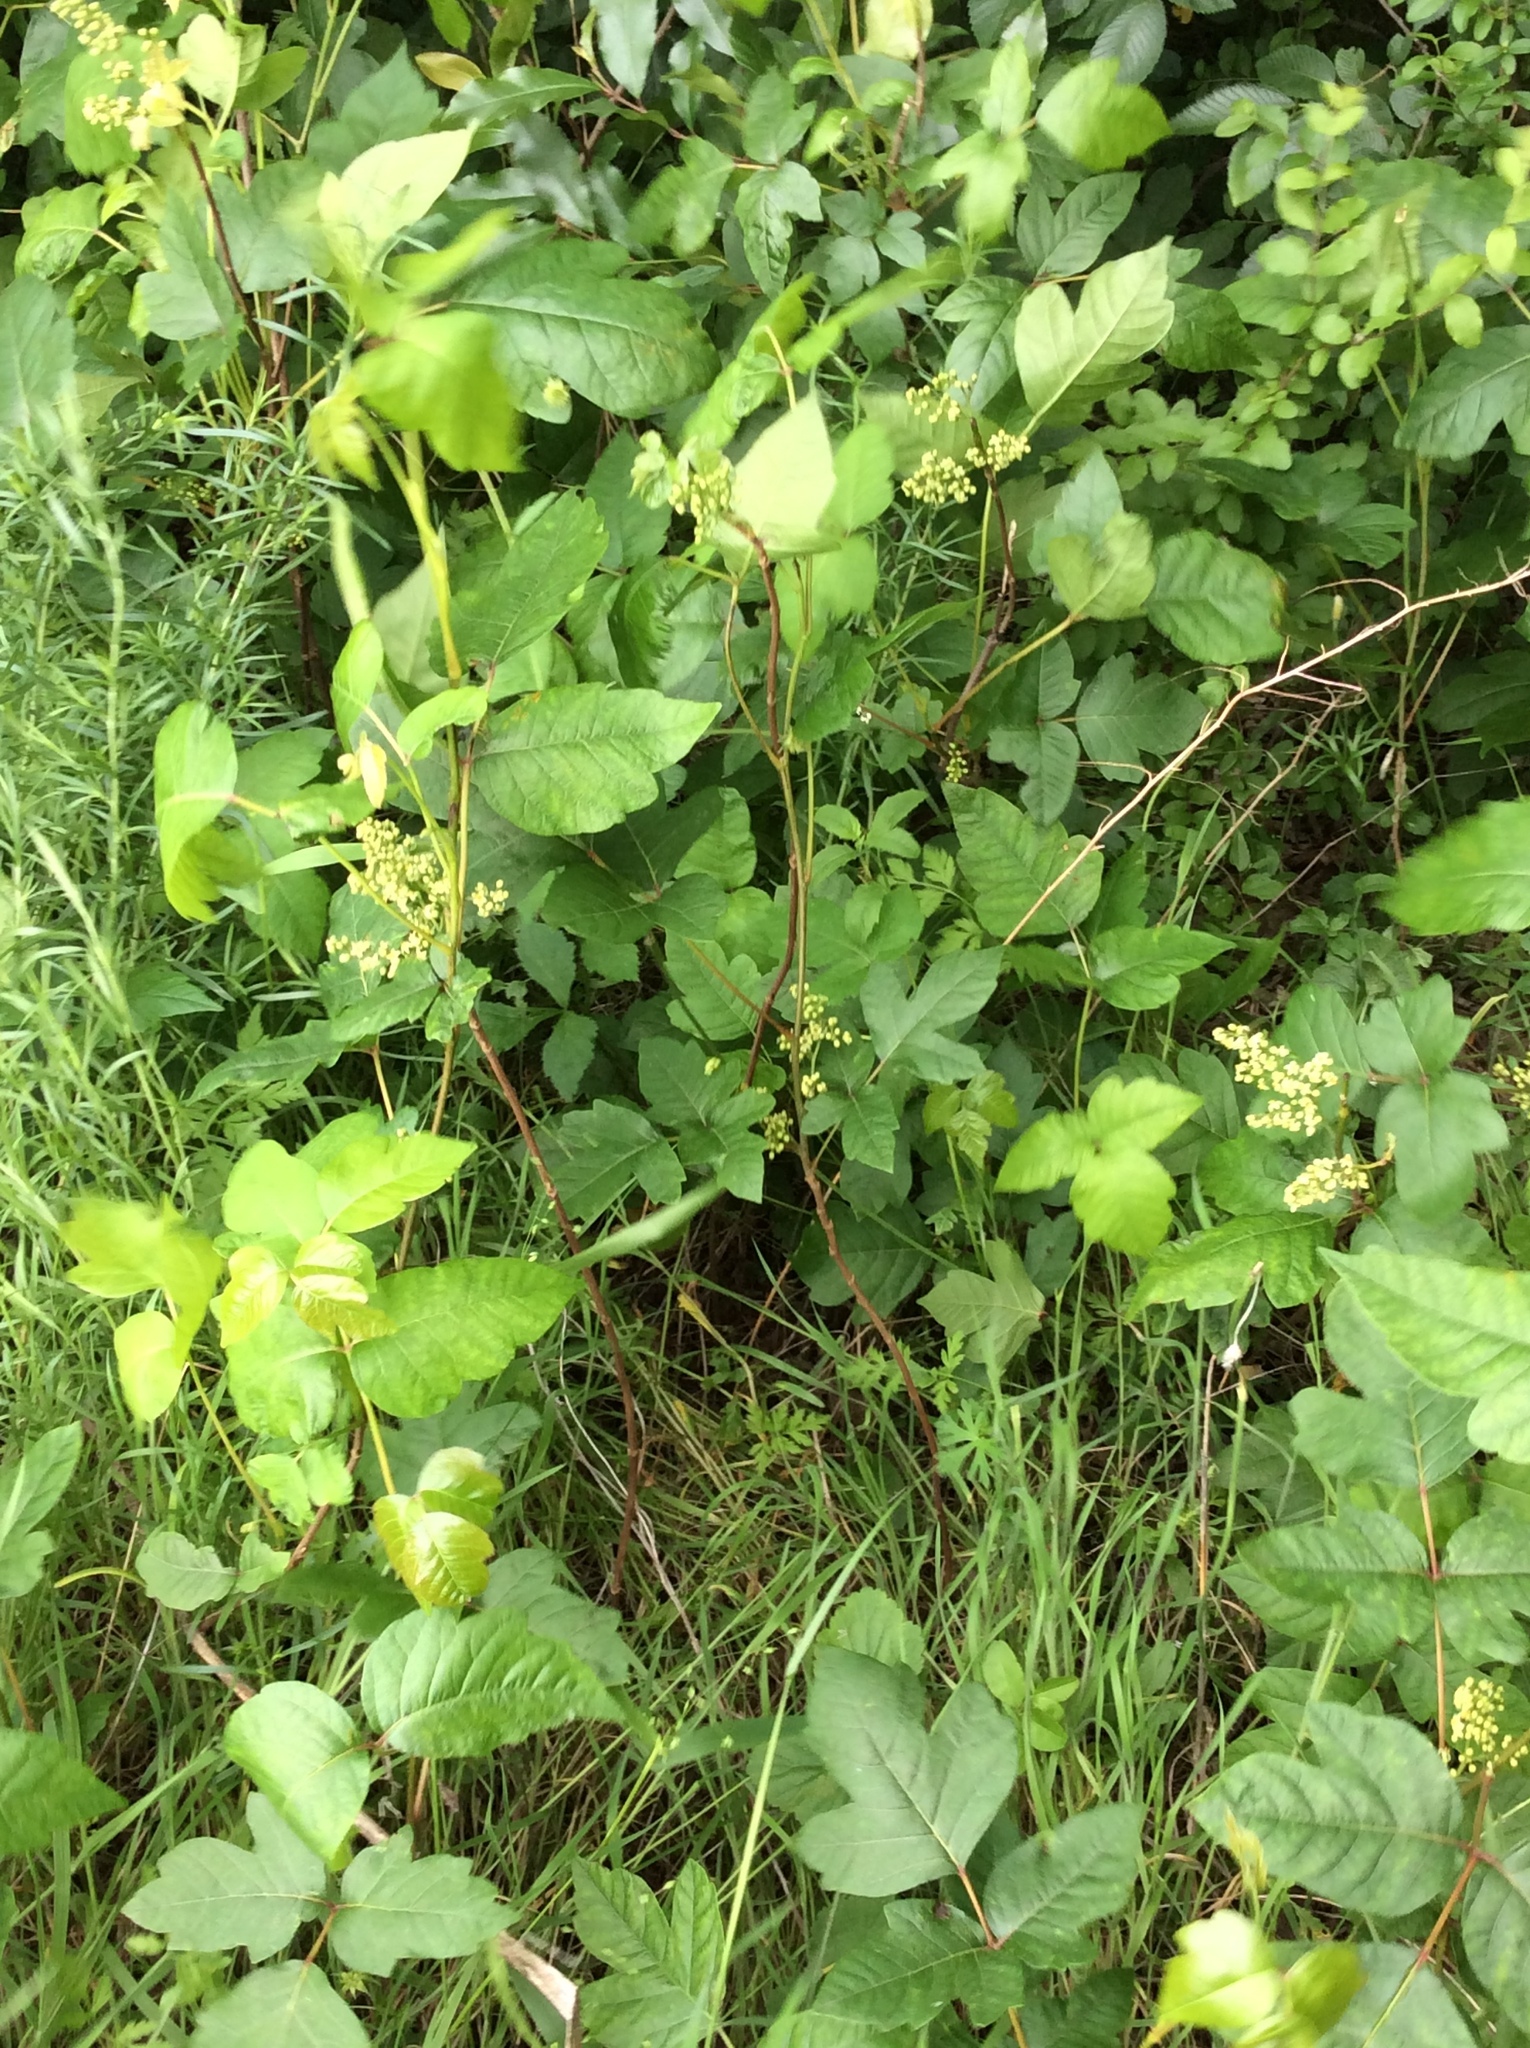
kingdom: Plantae
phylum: Tracheophyta
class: Magnoliopsida
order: Sapindales
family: Anacardiaceae
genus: Toxicodendron
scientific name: Toxicodendron radicans
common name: Poison ivy
